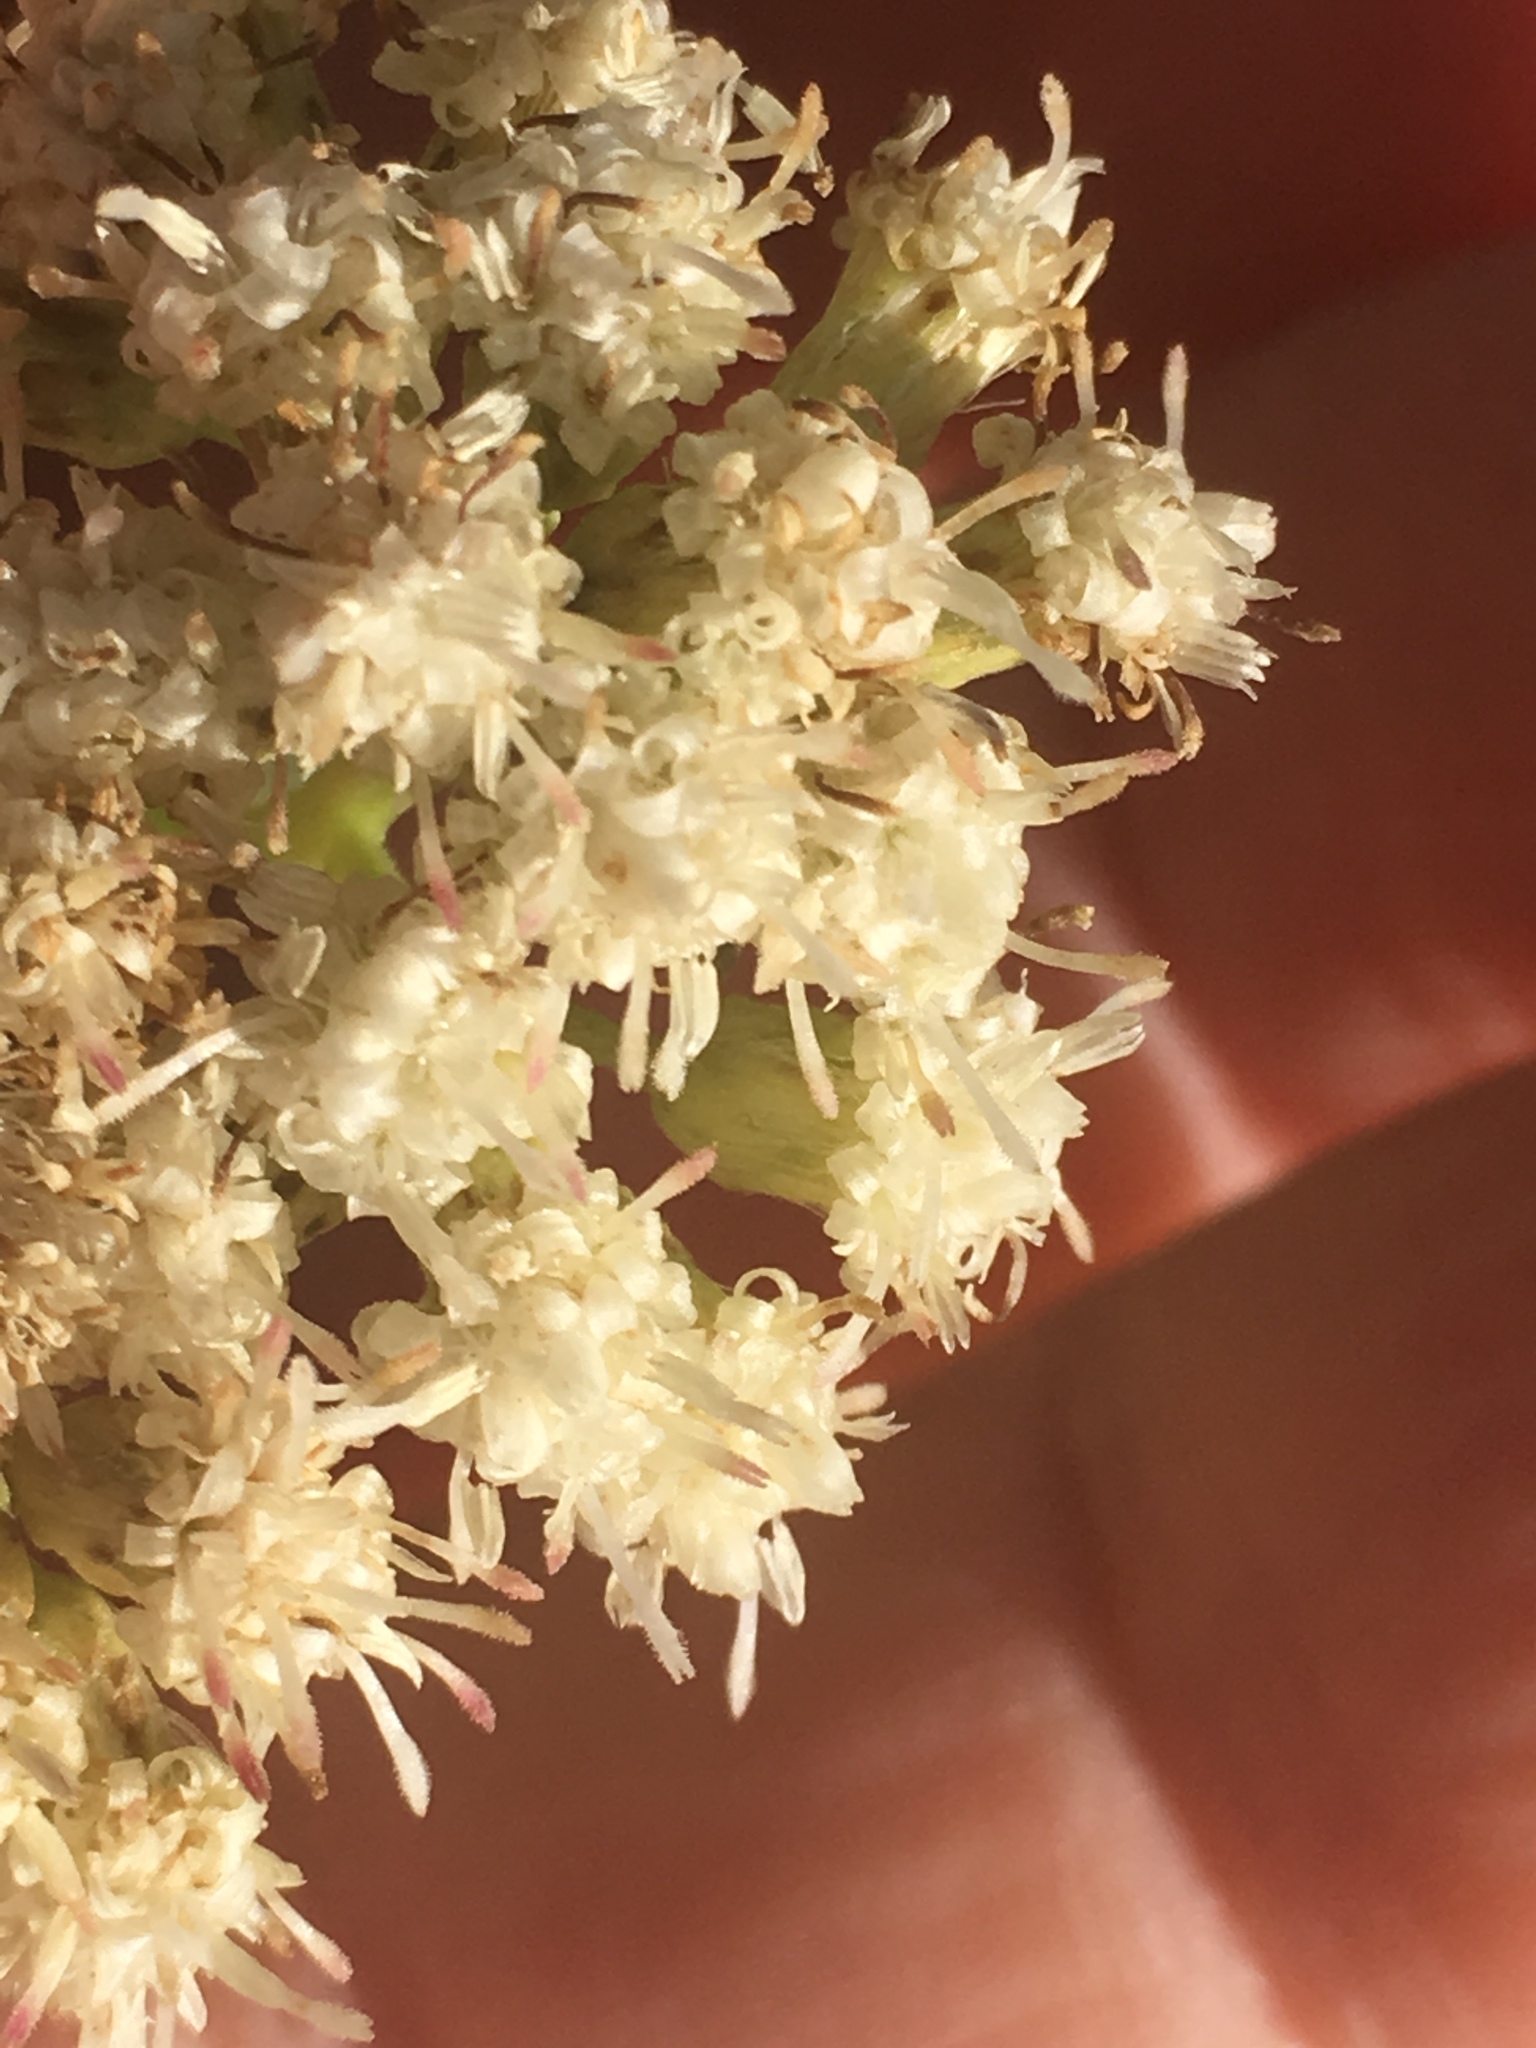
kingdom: Plantae
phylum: Tracheophyta
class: Magnoliopsida
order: Asterales
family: Asteraceae
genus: Baccharis
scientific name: Baccharis salicifolia
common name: Sticky baccharis
